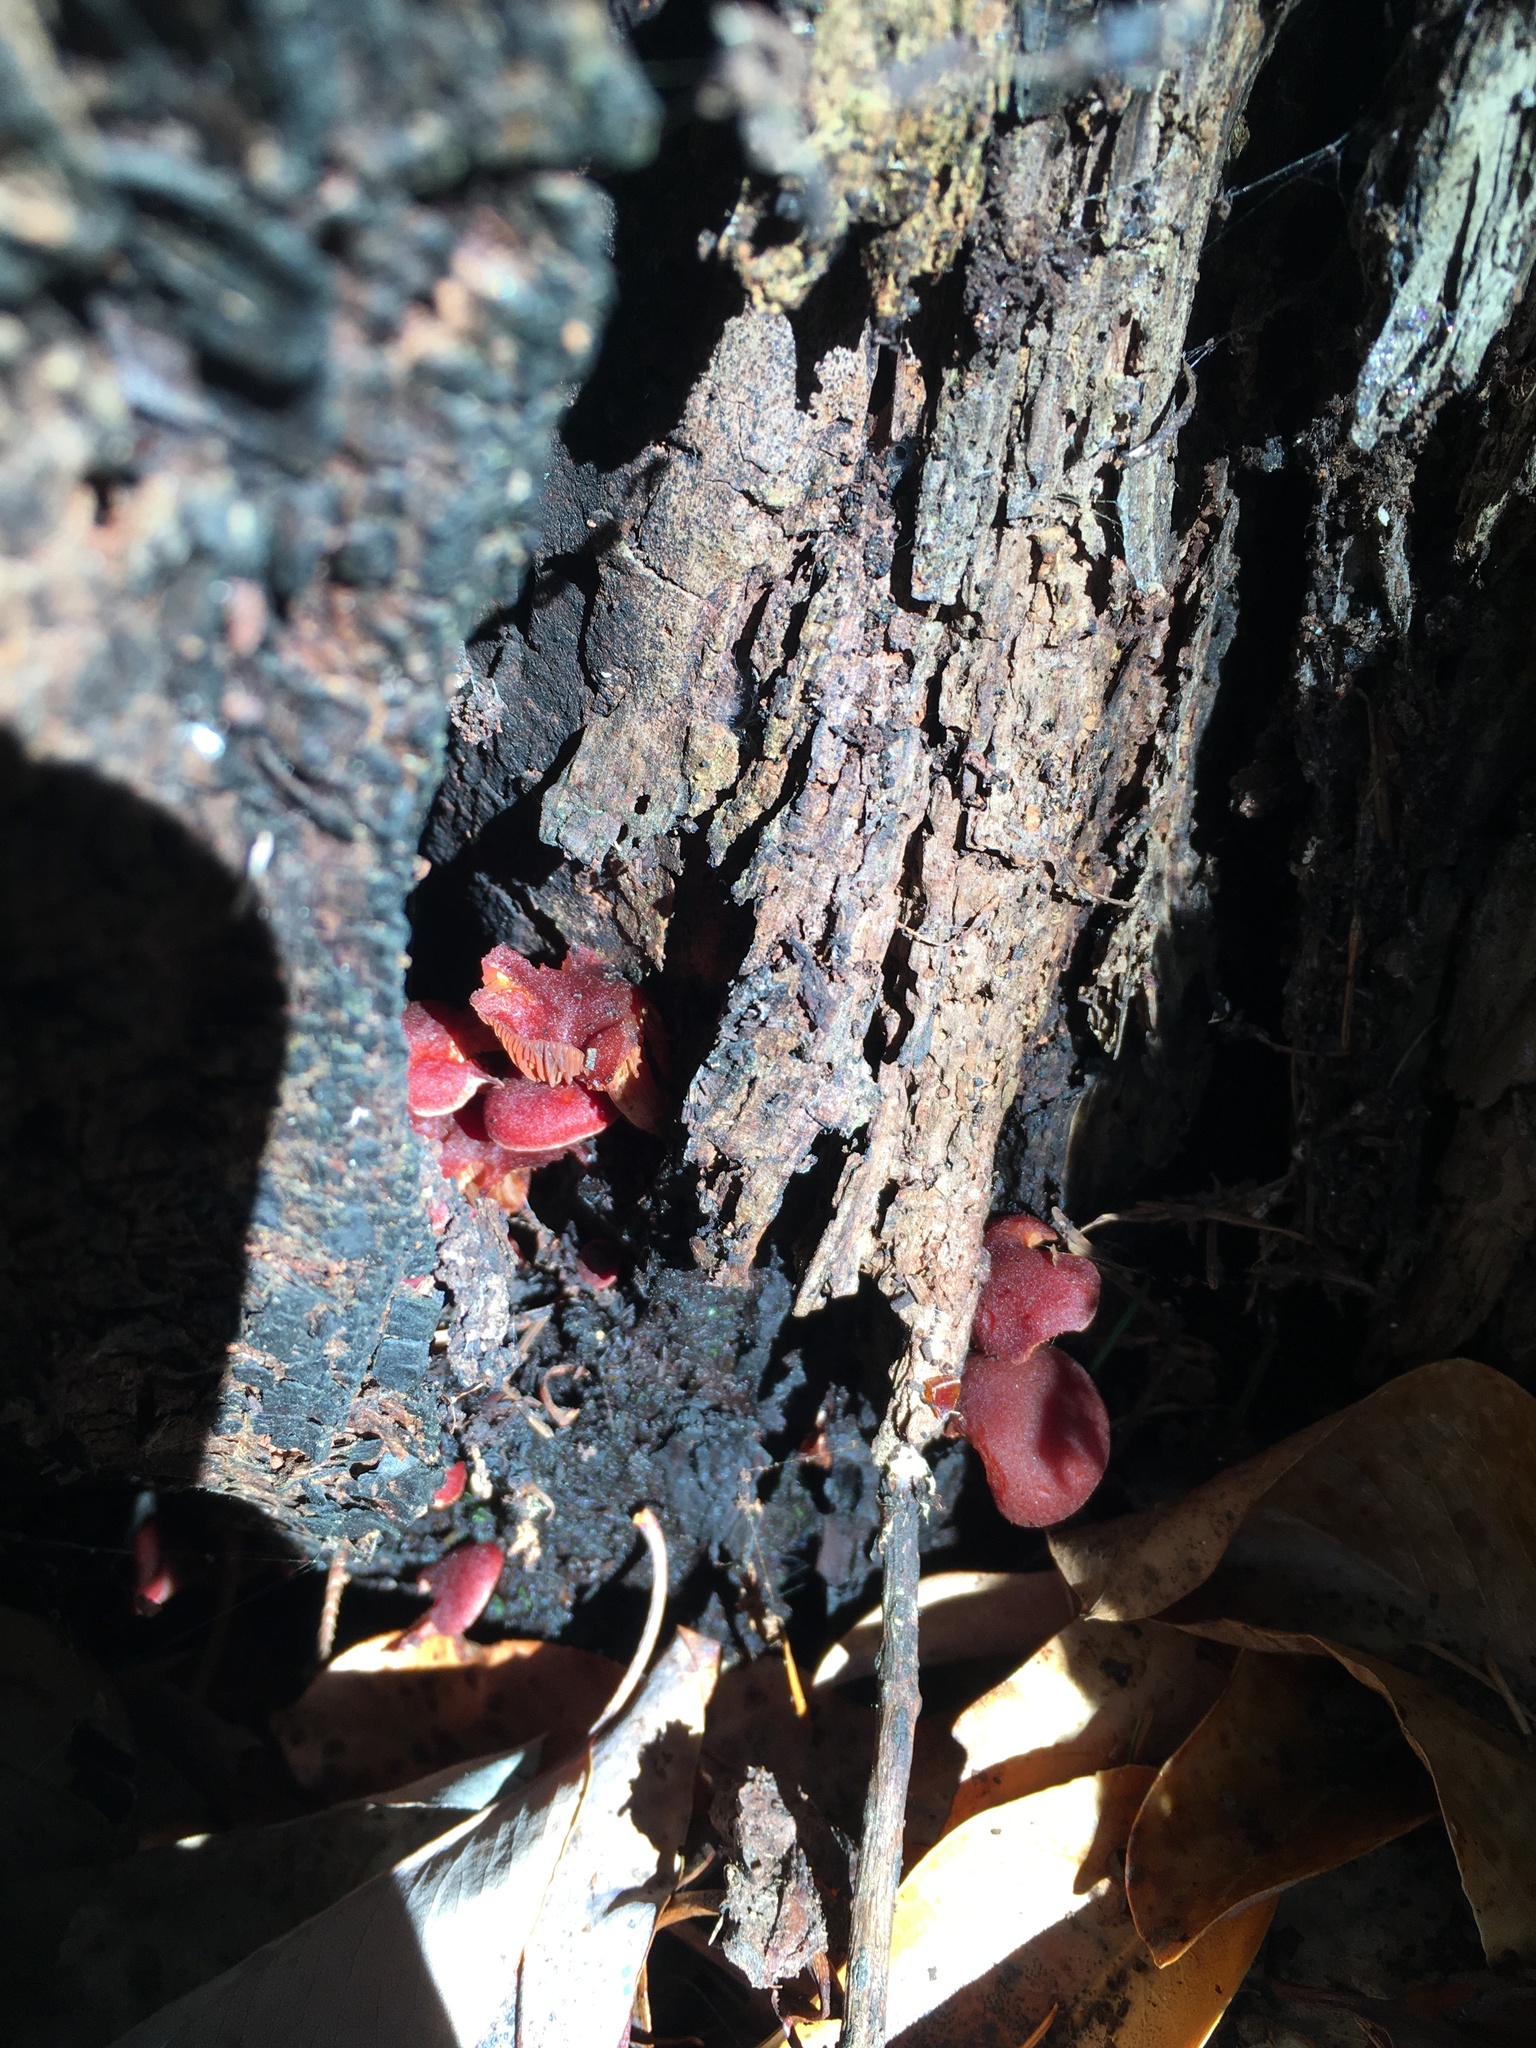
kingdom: Fungi
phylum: Basidiomycota
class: Agaricomycetes
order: Agaricales
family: Tubariaceae
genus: Tubaria
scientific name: Tubaria punicea
